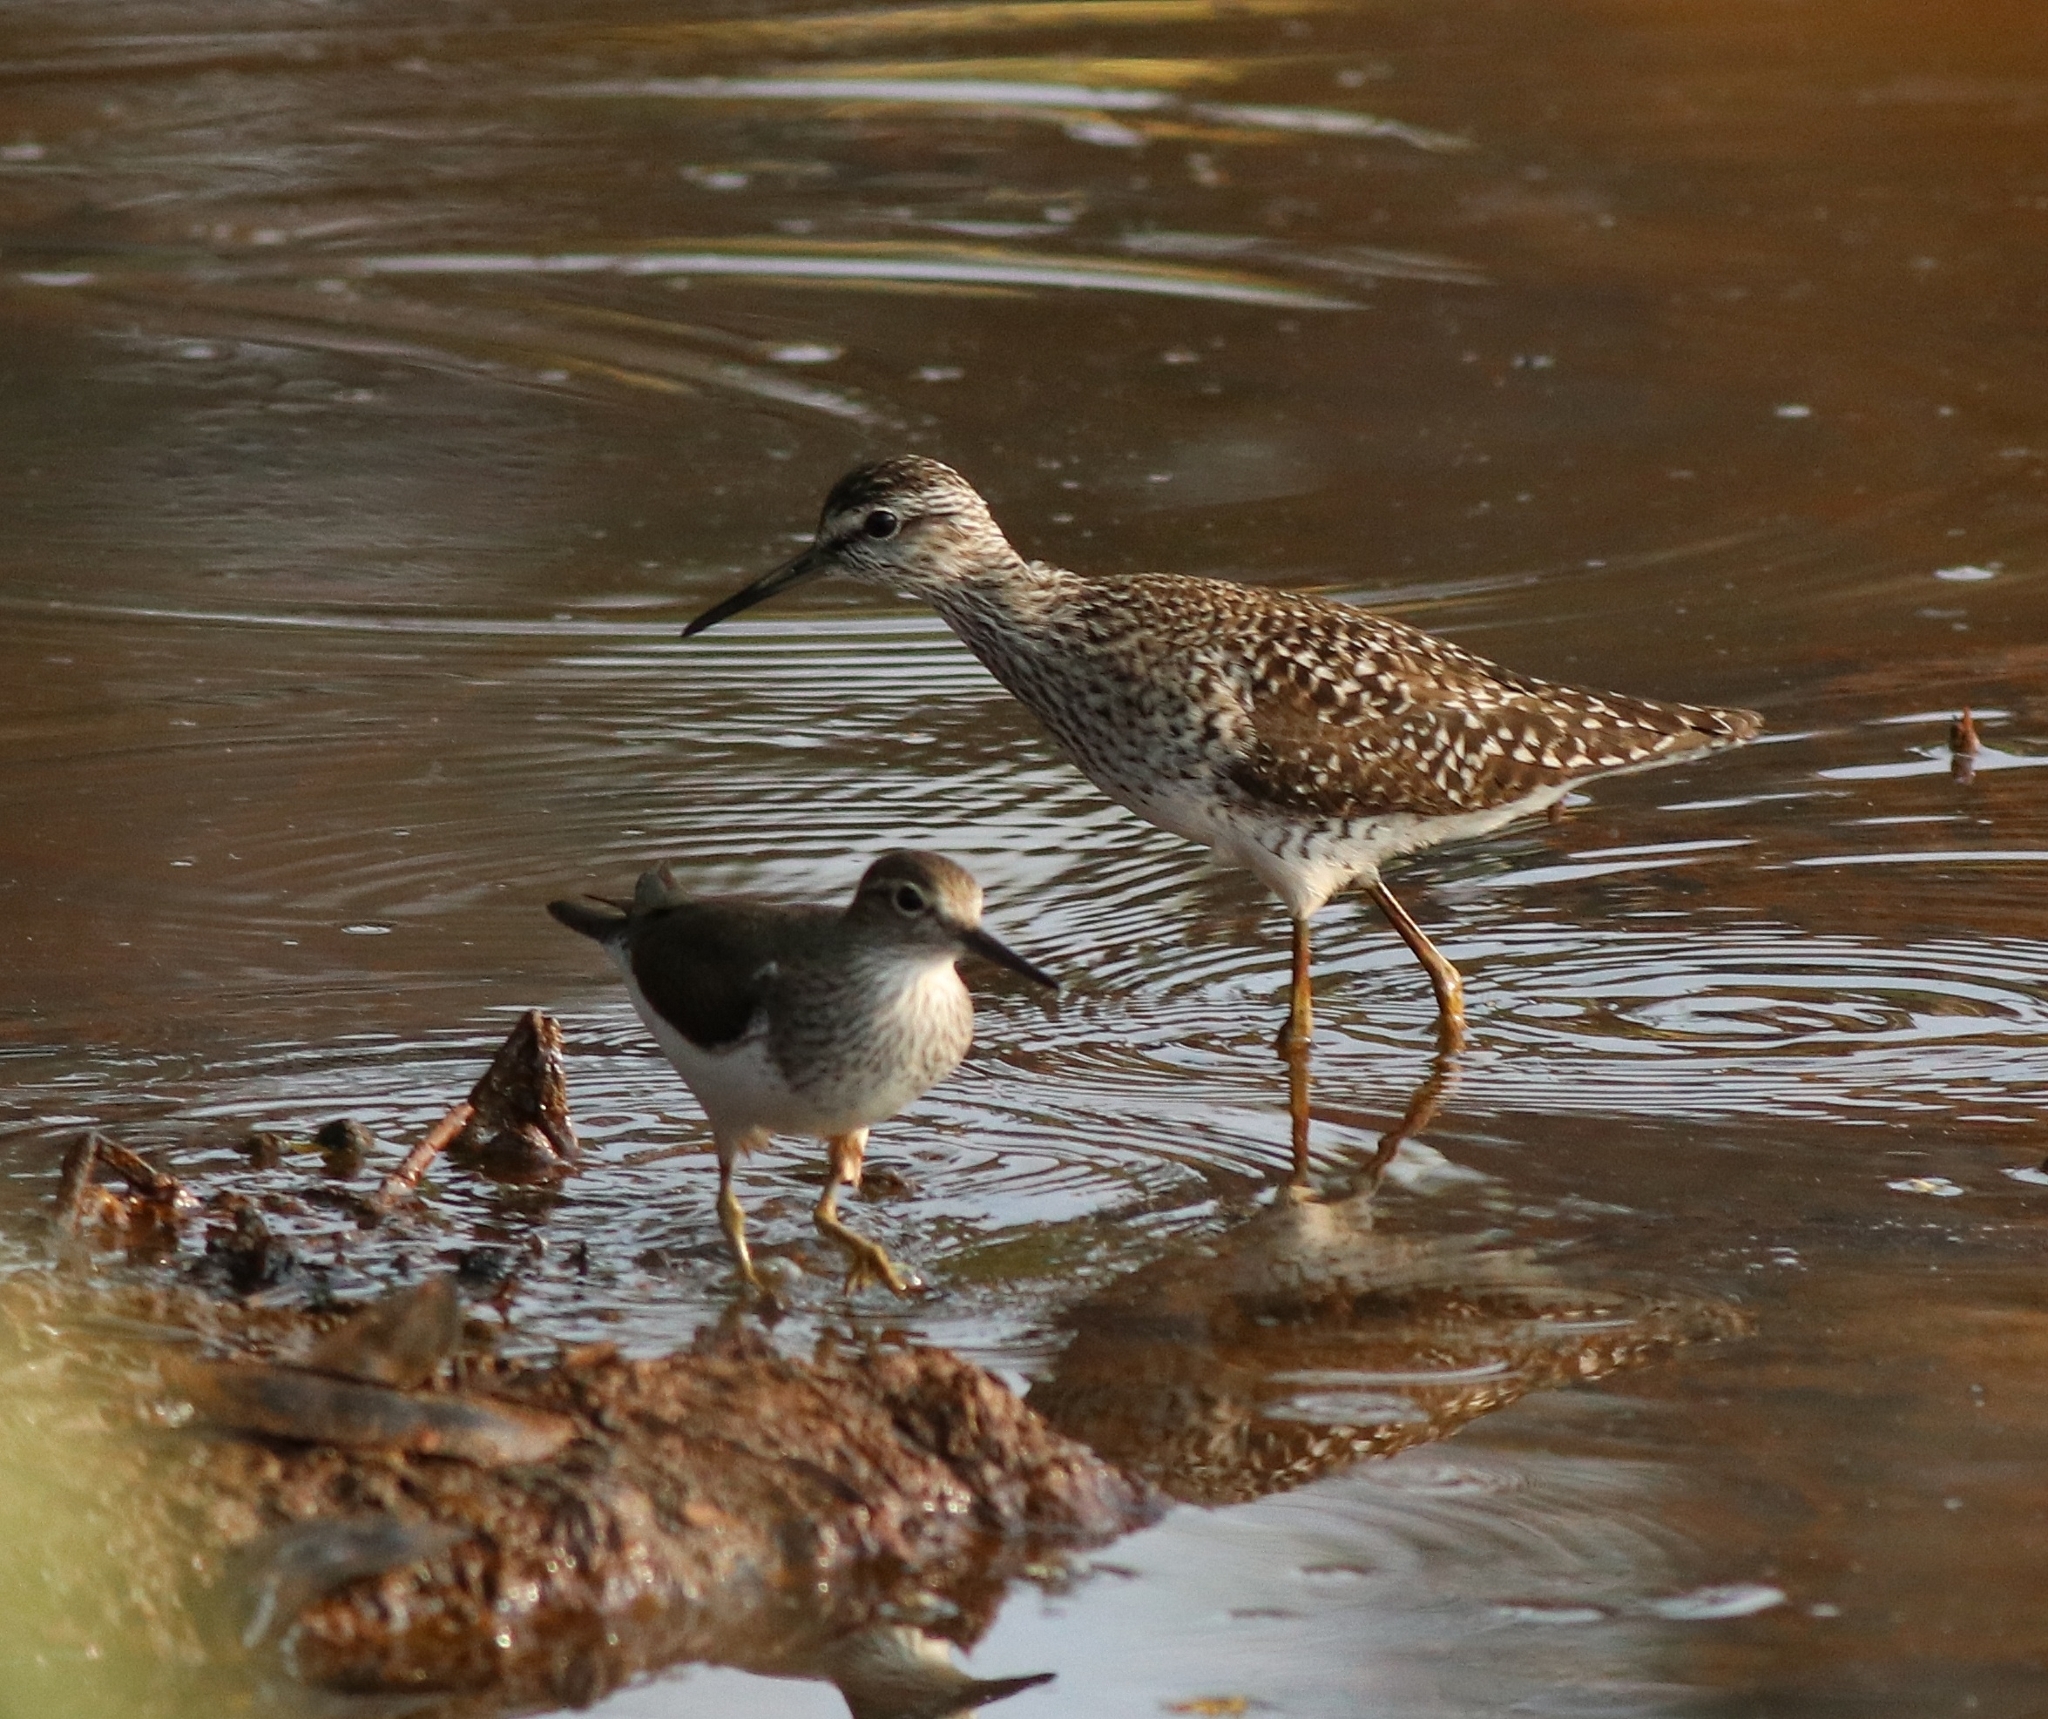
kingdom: Animalia
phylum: Chordata
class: Aves
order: Charadriiformes
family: Scolopacidae
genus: Tringa
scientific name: Tringa glareola
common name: Wood sandpiper
